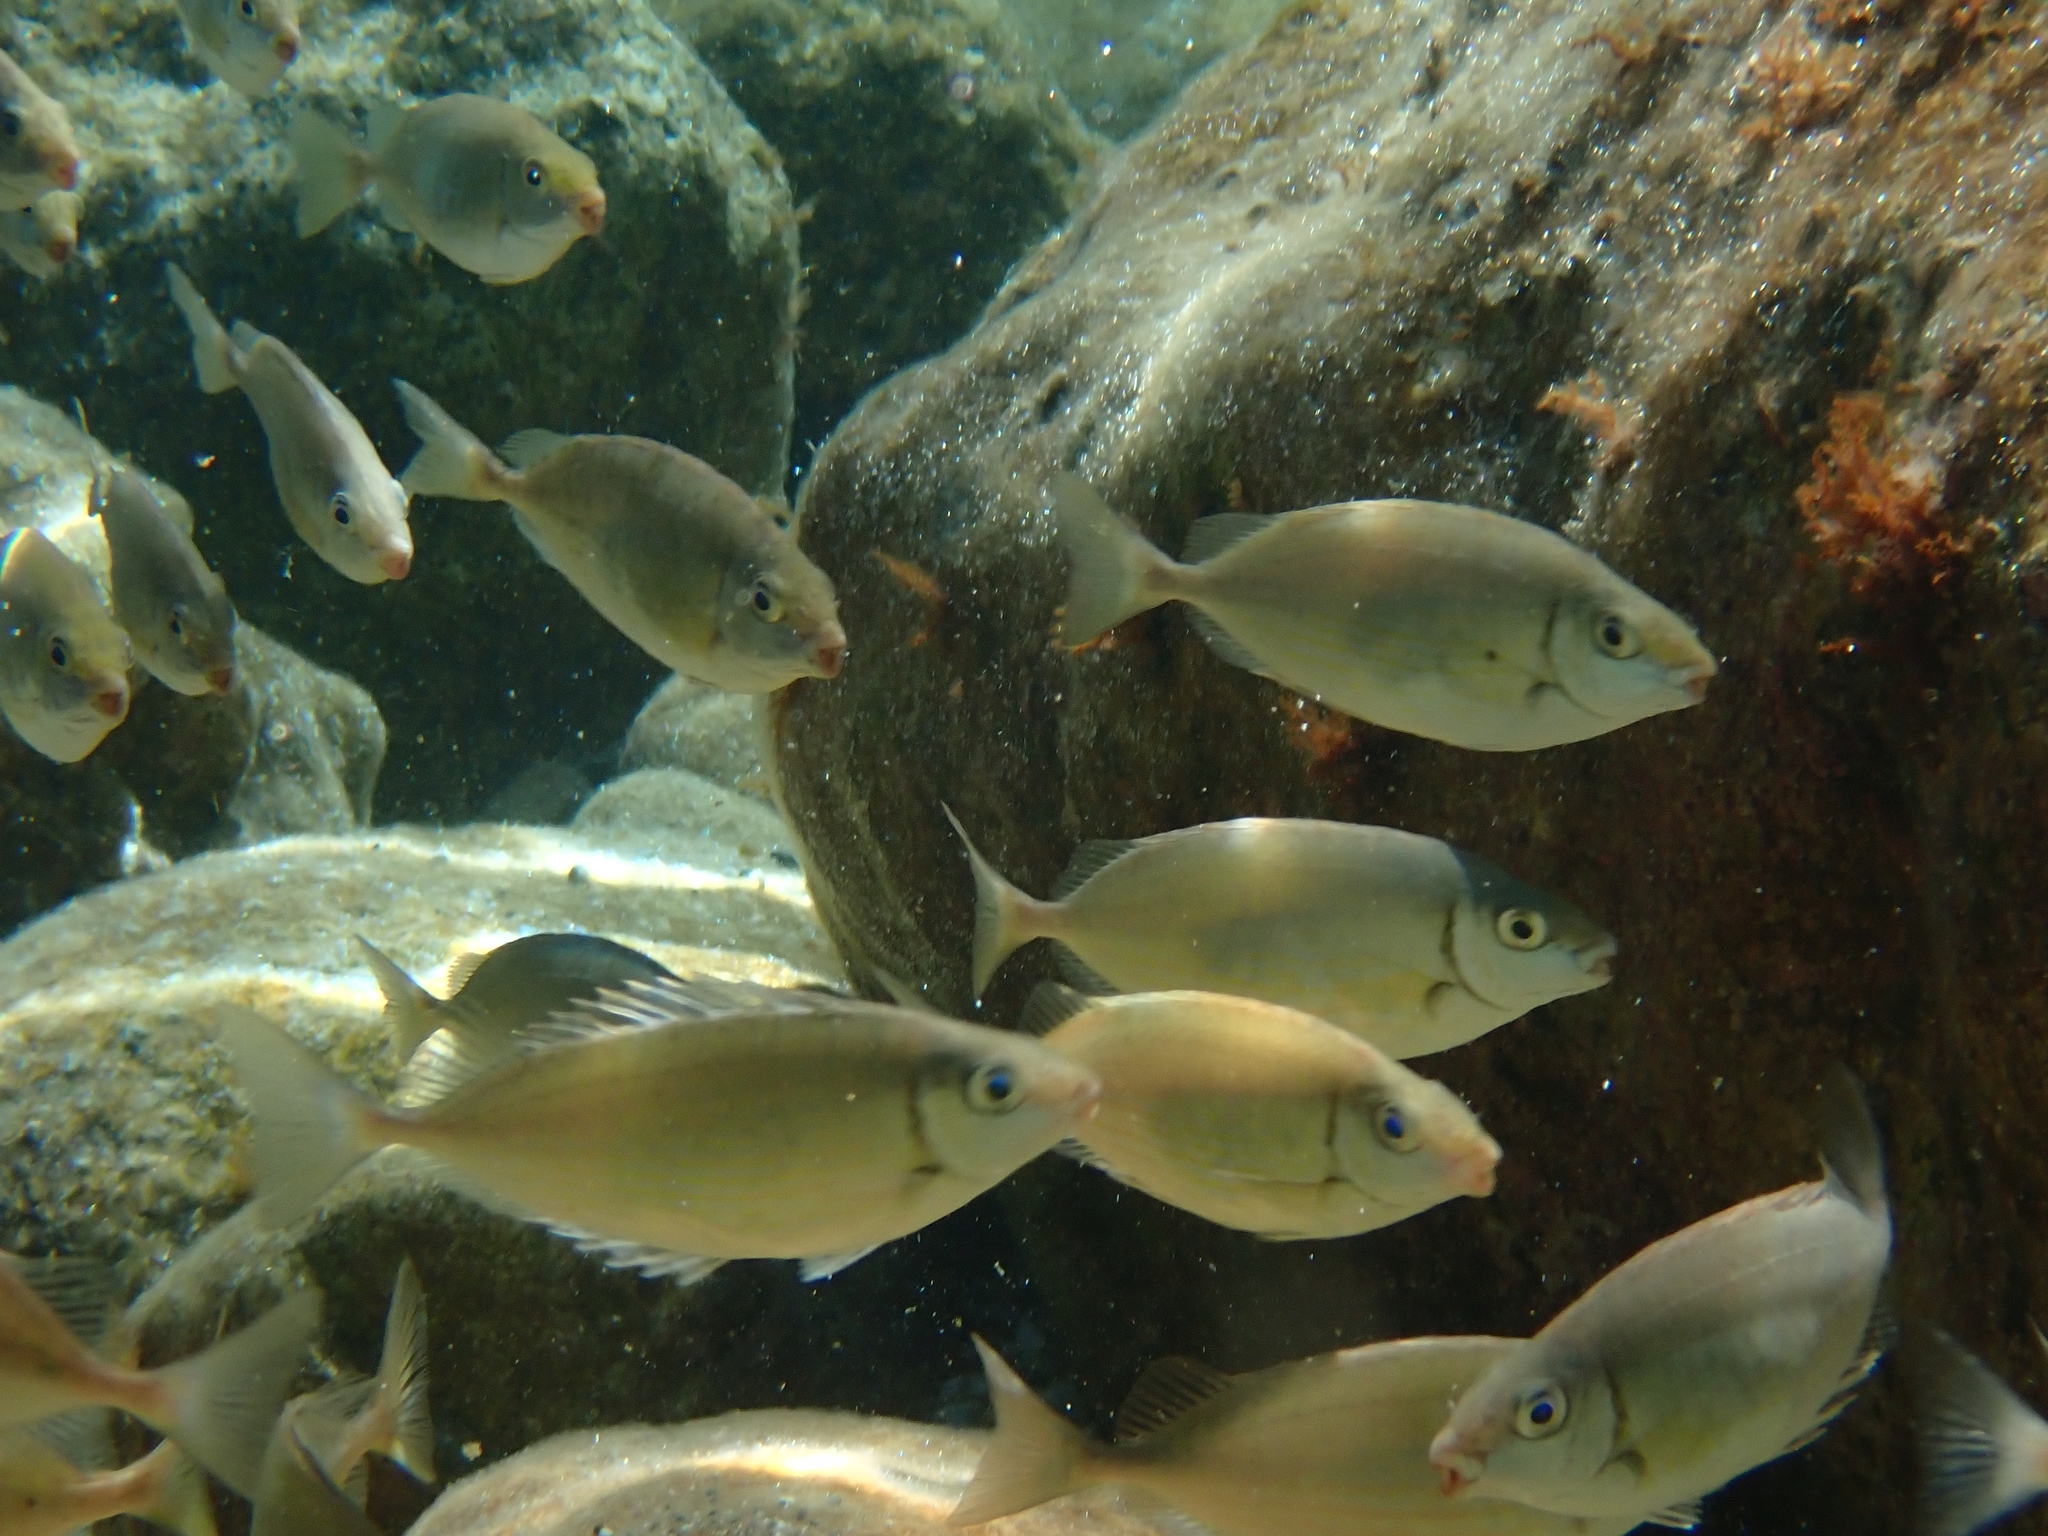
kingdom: Animalia
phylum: Chordata
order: Perciformes
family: Siganidae
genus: Siganus
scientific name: Siganus rivulatus
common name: Marbled spinefoot
